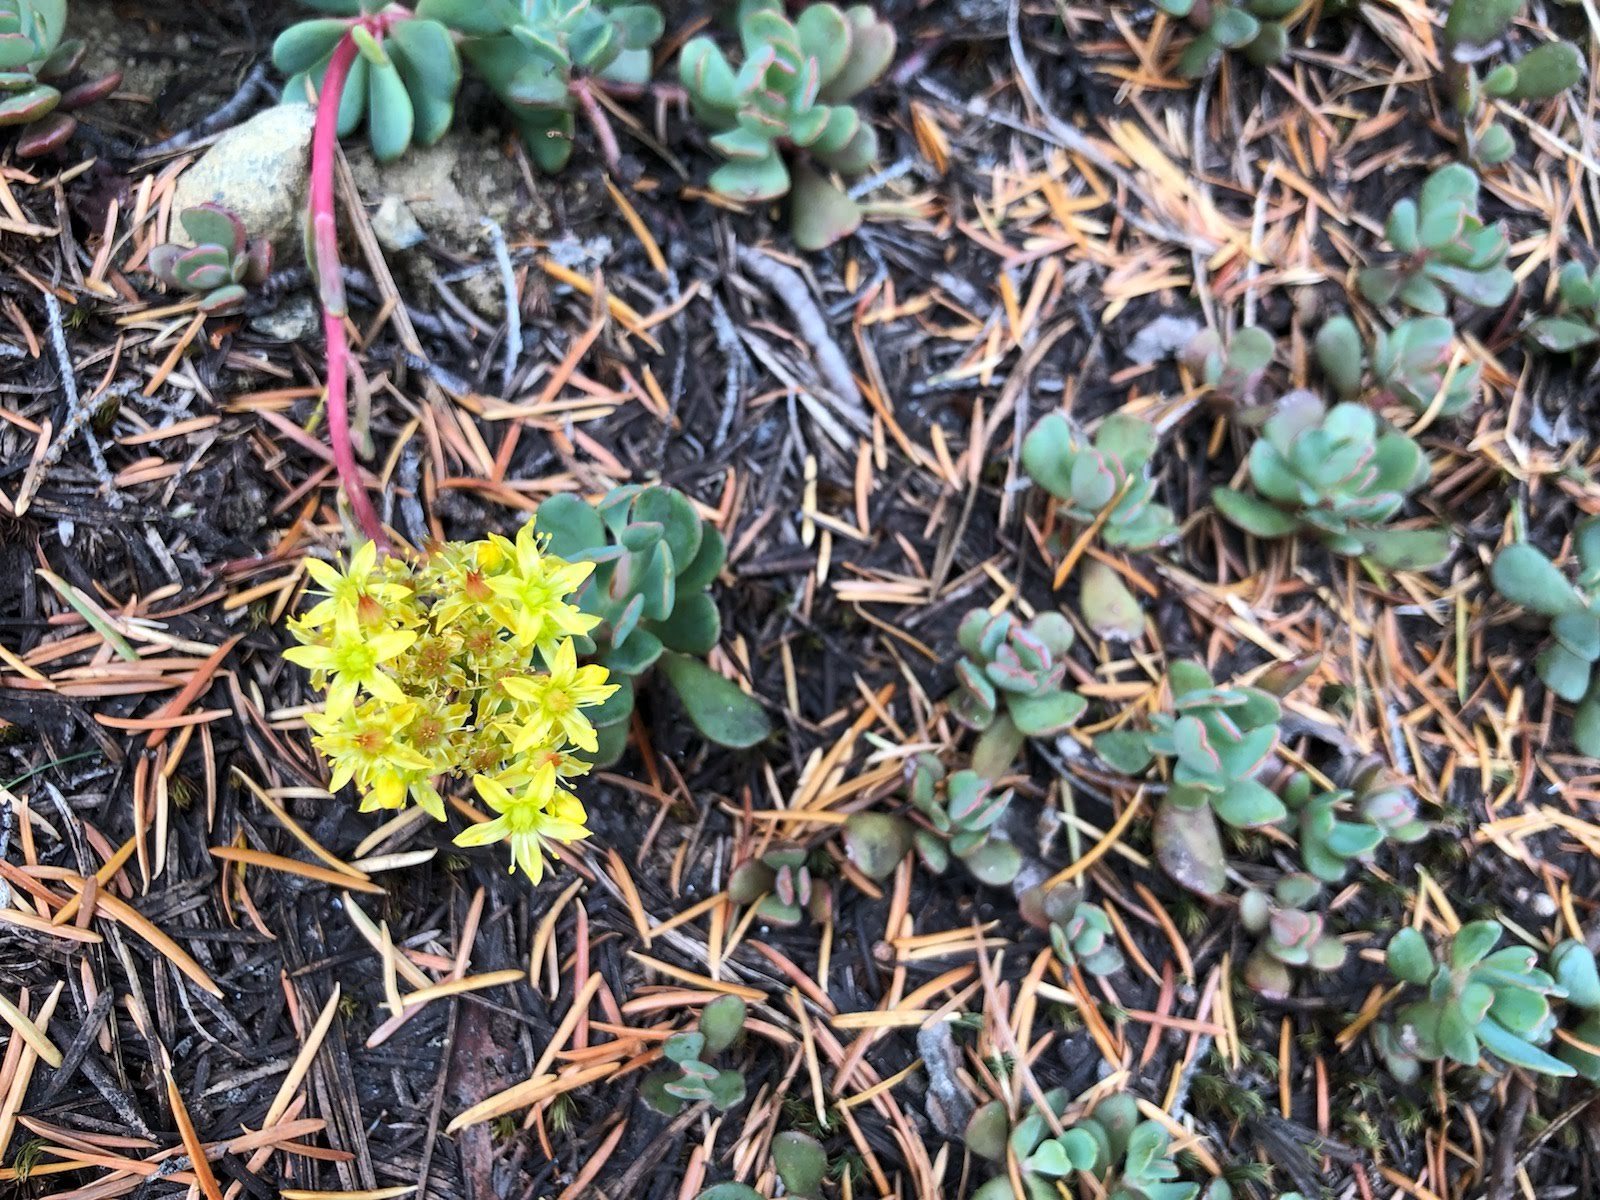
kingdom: Plantae
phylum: Tracheophyta
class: Magnoliopsida
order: Saxifragales
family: Crassulaceae
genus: Sedum
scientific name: Sedum obtusatum
